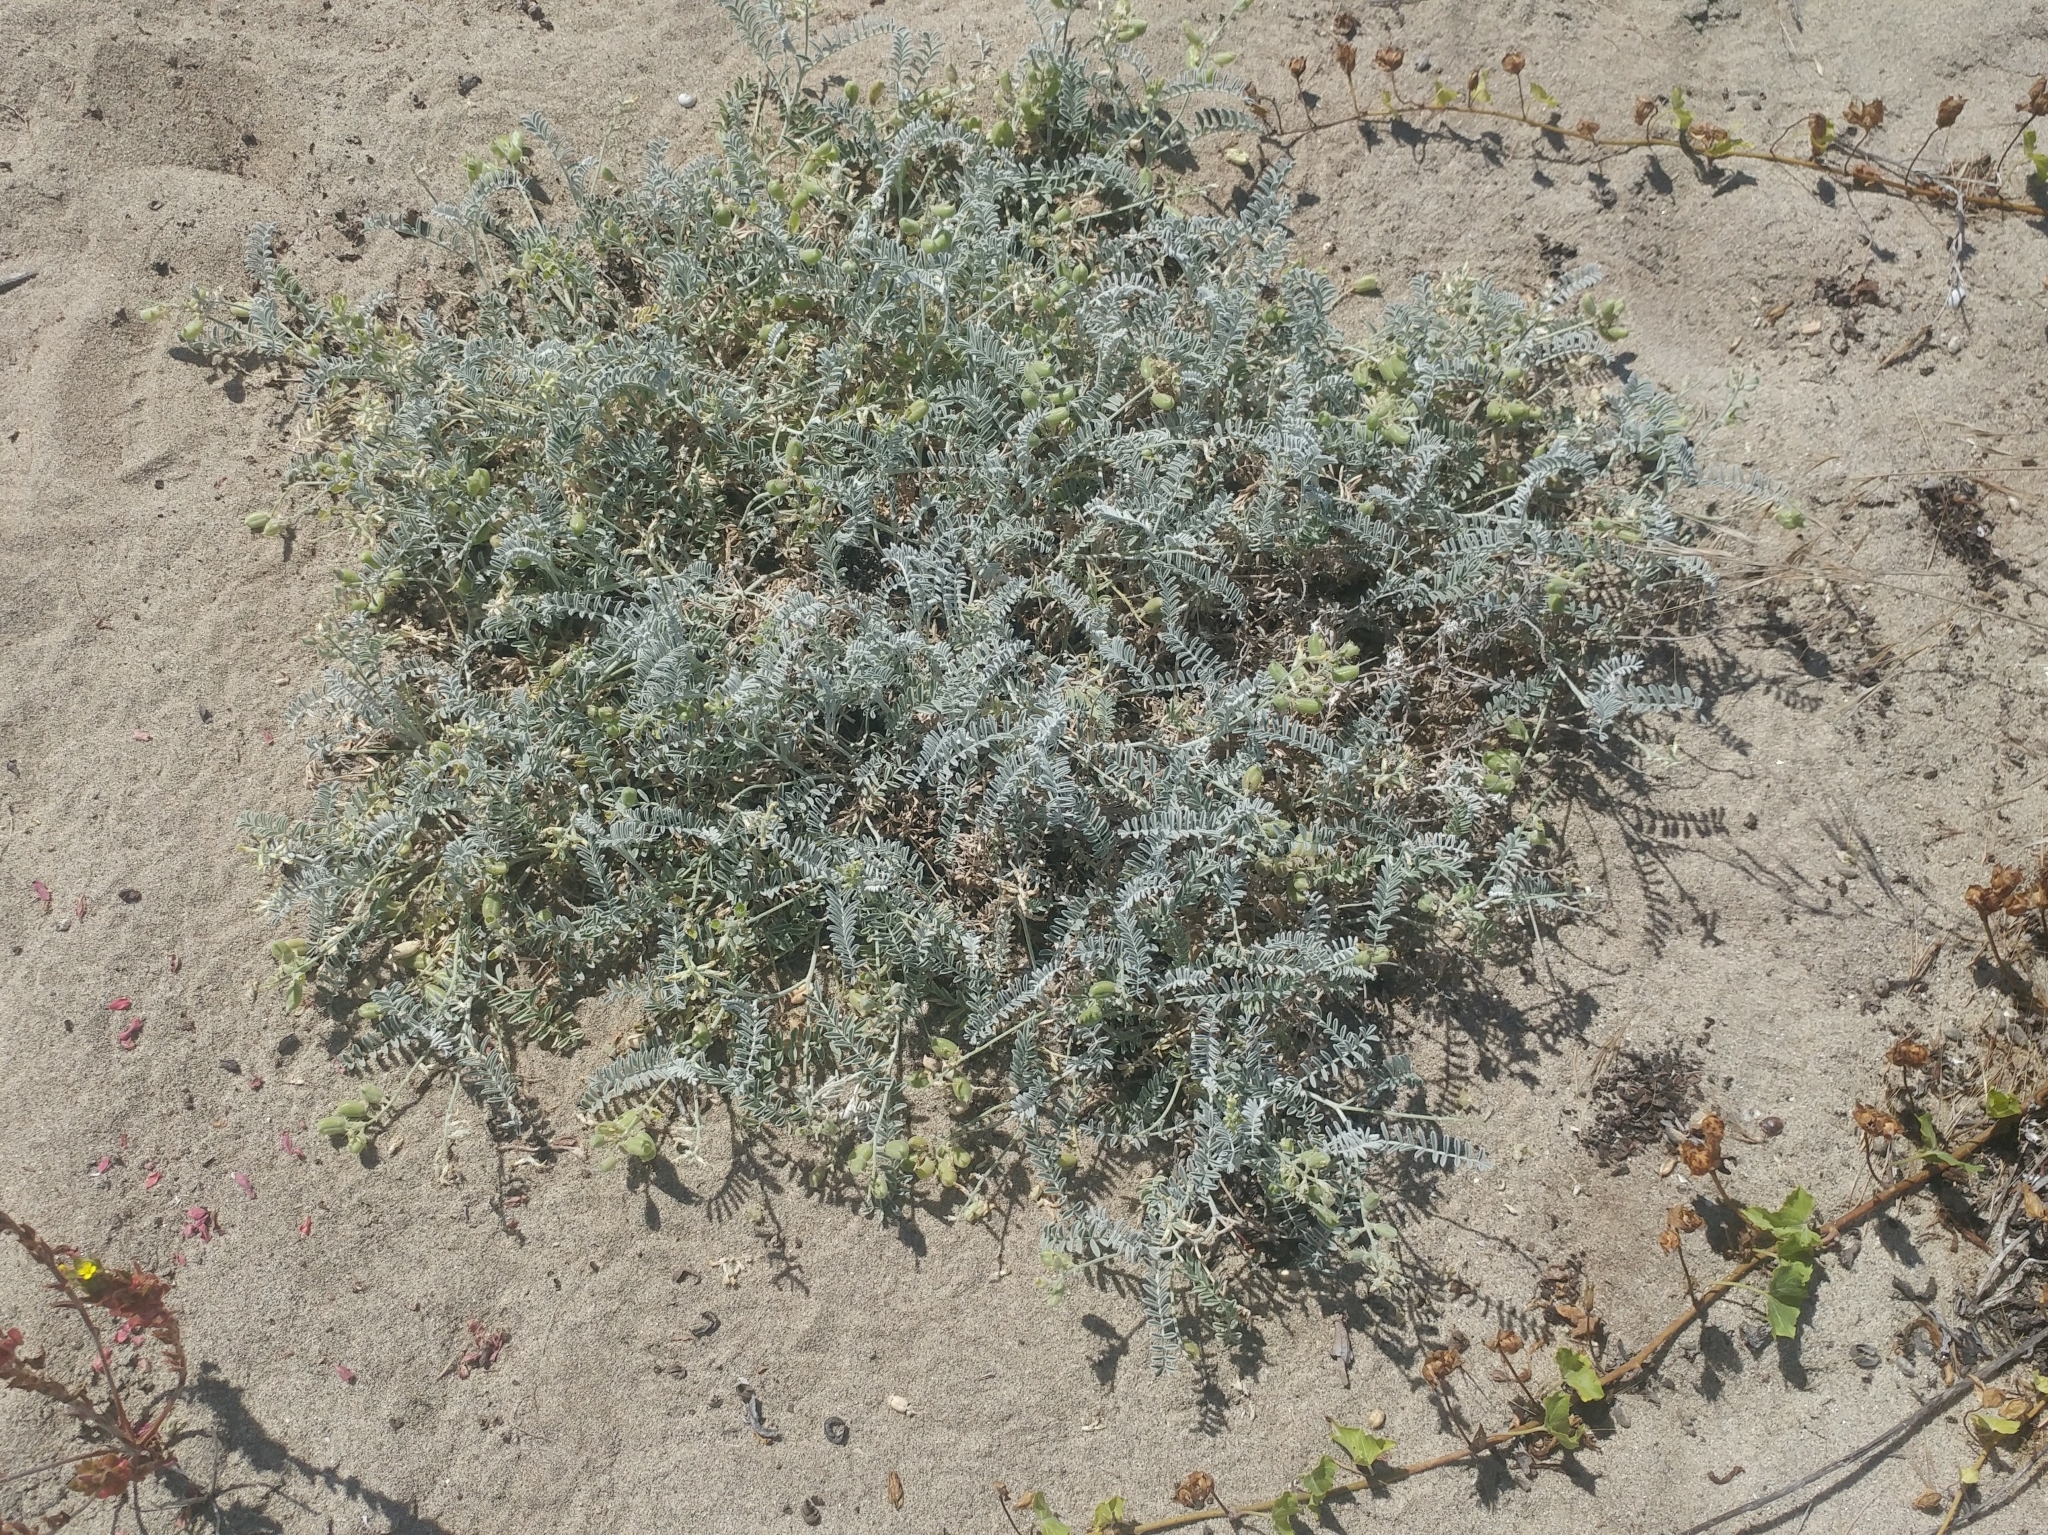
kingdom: Plantae
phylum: Tracheophyta
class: Magnoliopsida
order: Fabales
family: Fabaceae
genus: Astragalus
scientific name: Astragalus miguelensis
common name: San miguel milk-vetch
